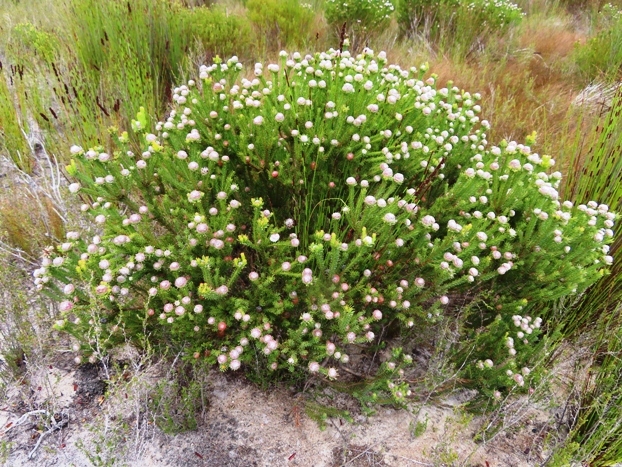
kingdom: Plantae
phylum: Tracheophyta
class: Magnoliopsida
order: Proteales
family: Proteaceae
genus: Leucadendron
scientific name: Leucadendron linifolium
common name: Line-leaf conebush
